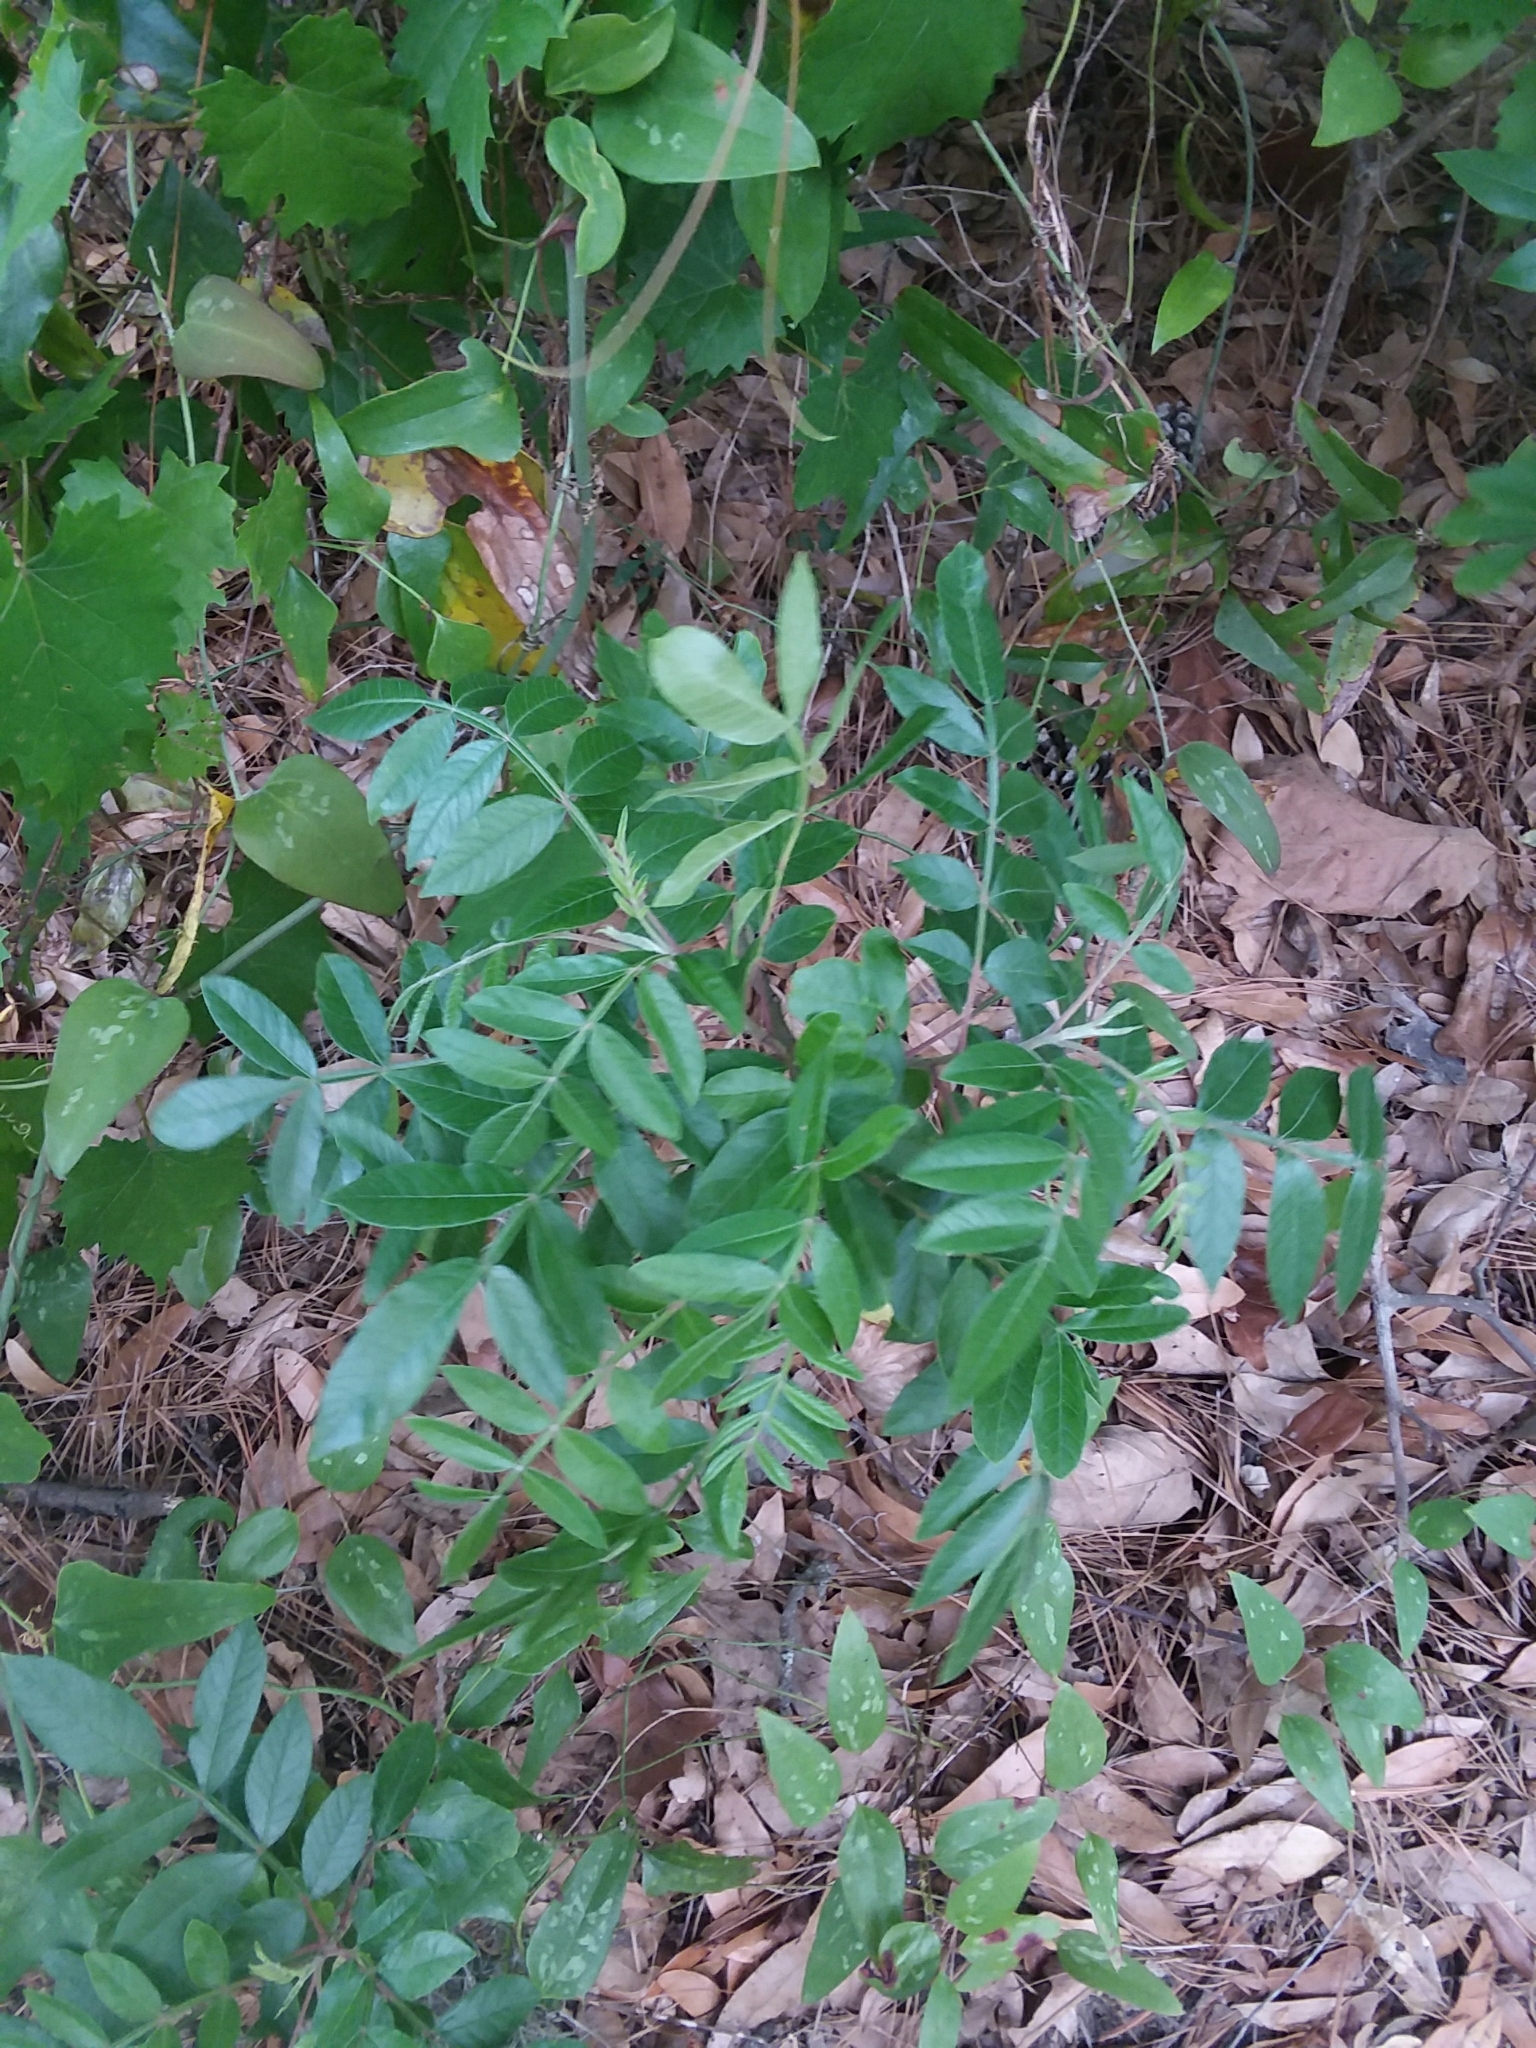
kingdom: Plantae
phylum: Tracheophyta
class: Magnoliopsida
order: Sapindales
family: Anacardiaceae
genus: Rhus
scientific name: Rhus copallina
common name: Shining sumac
